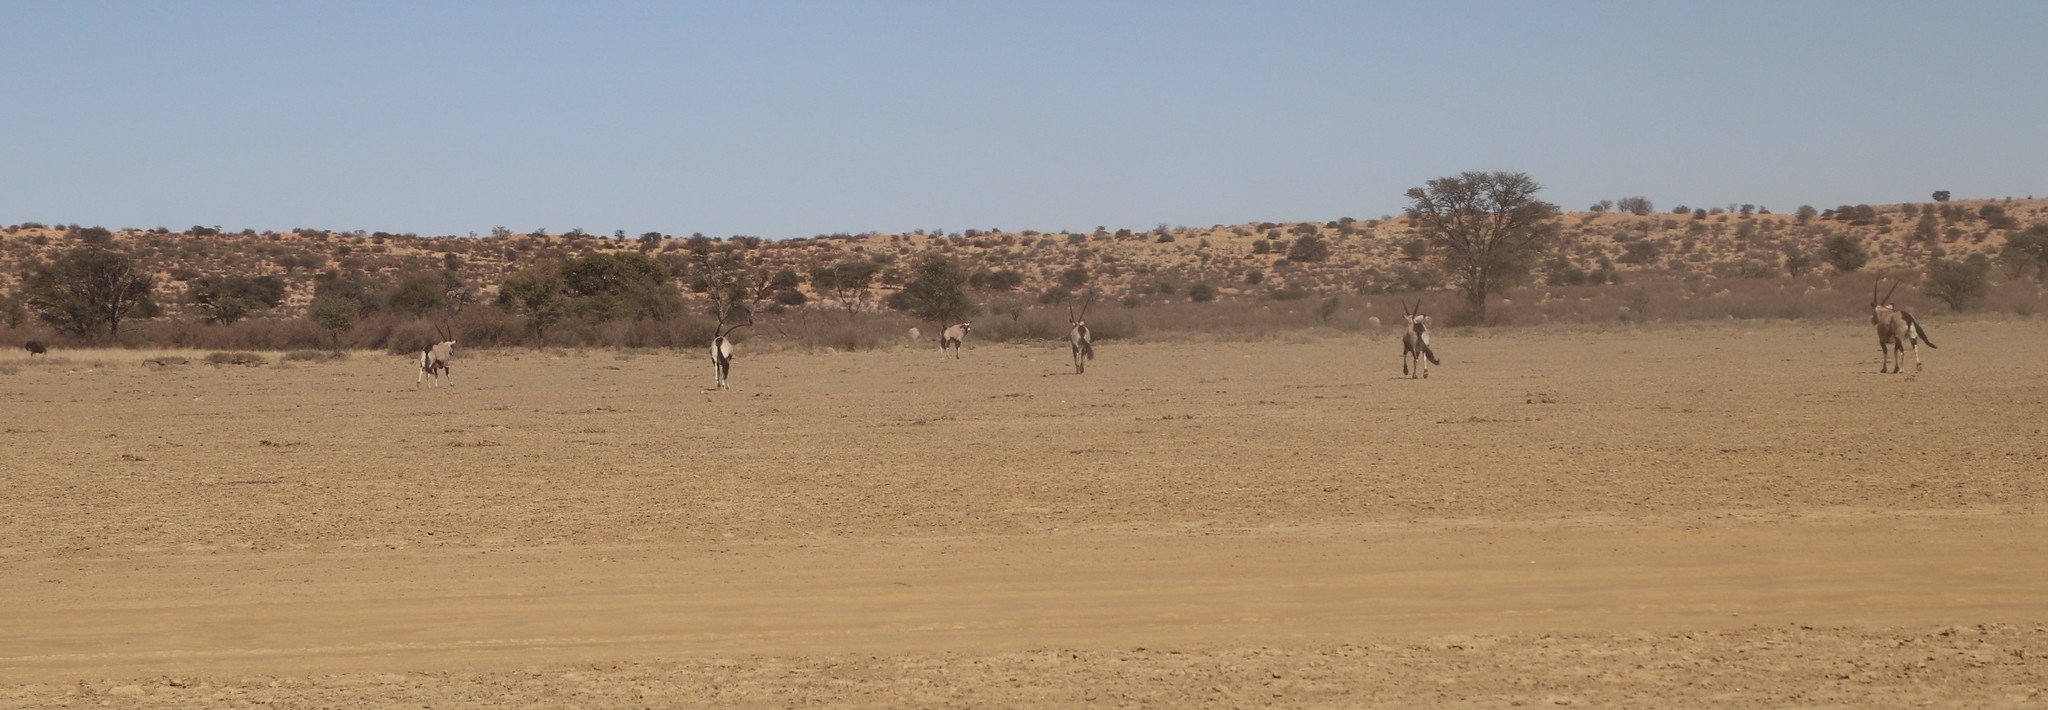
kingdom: Animalia
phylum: Chordata
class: Mammalia
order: Artiodactyla
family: Bovidae
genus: Oryx
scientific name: Oryx gazella
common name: Gemsbok
